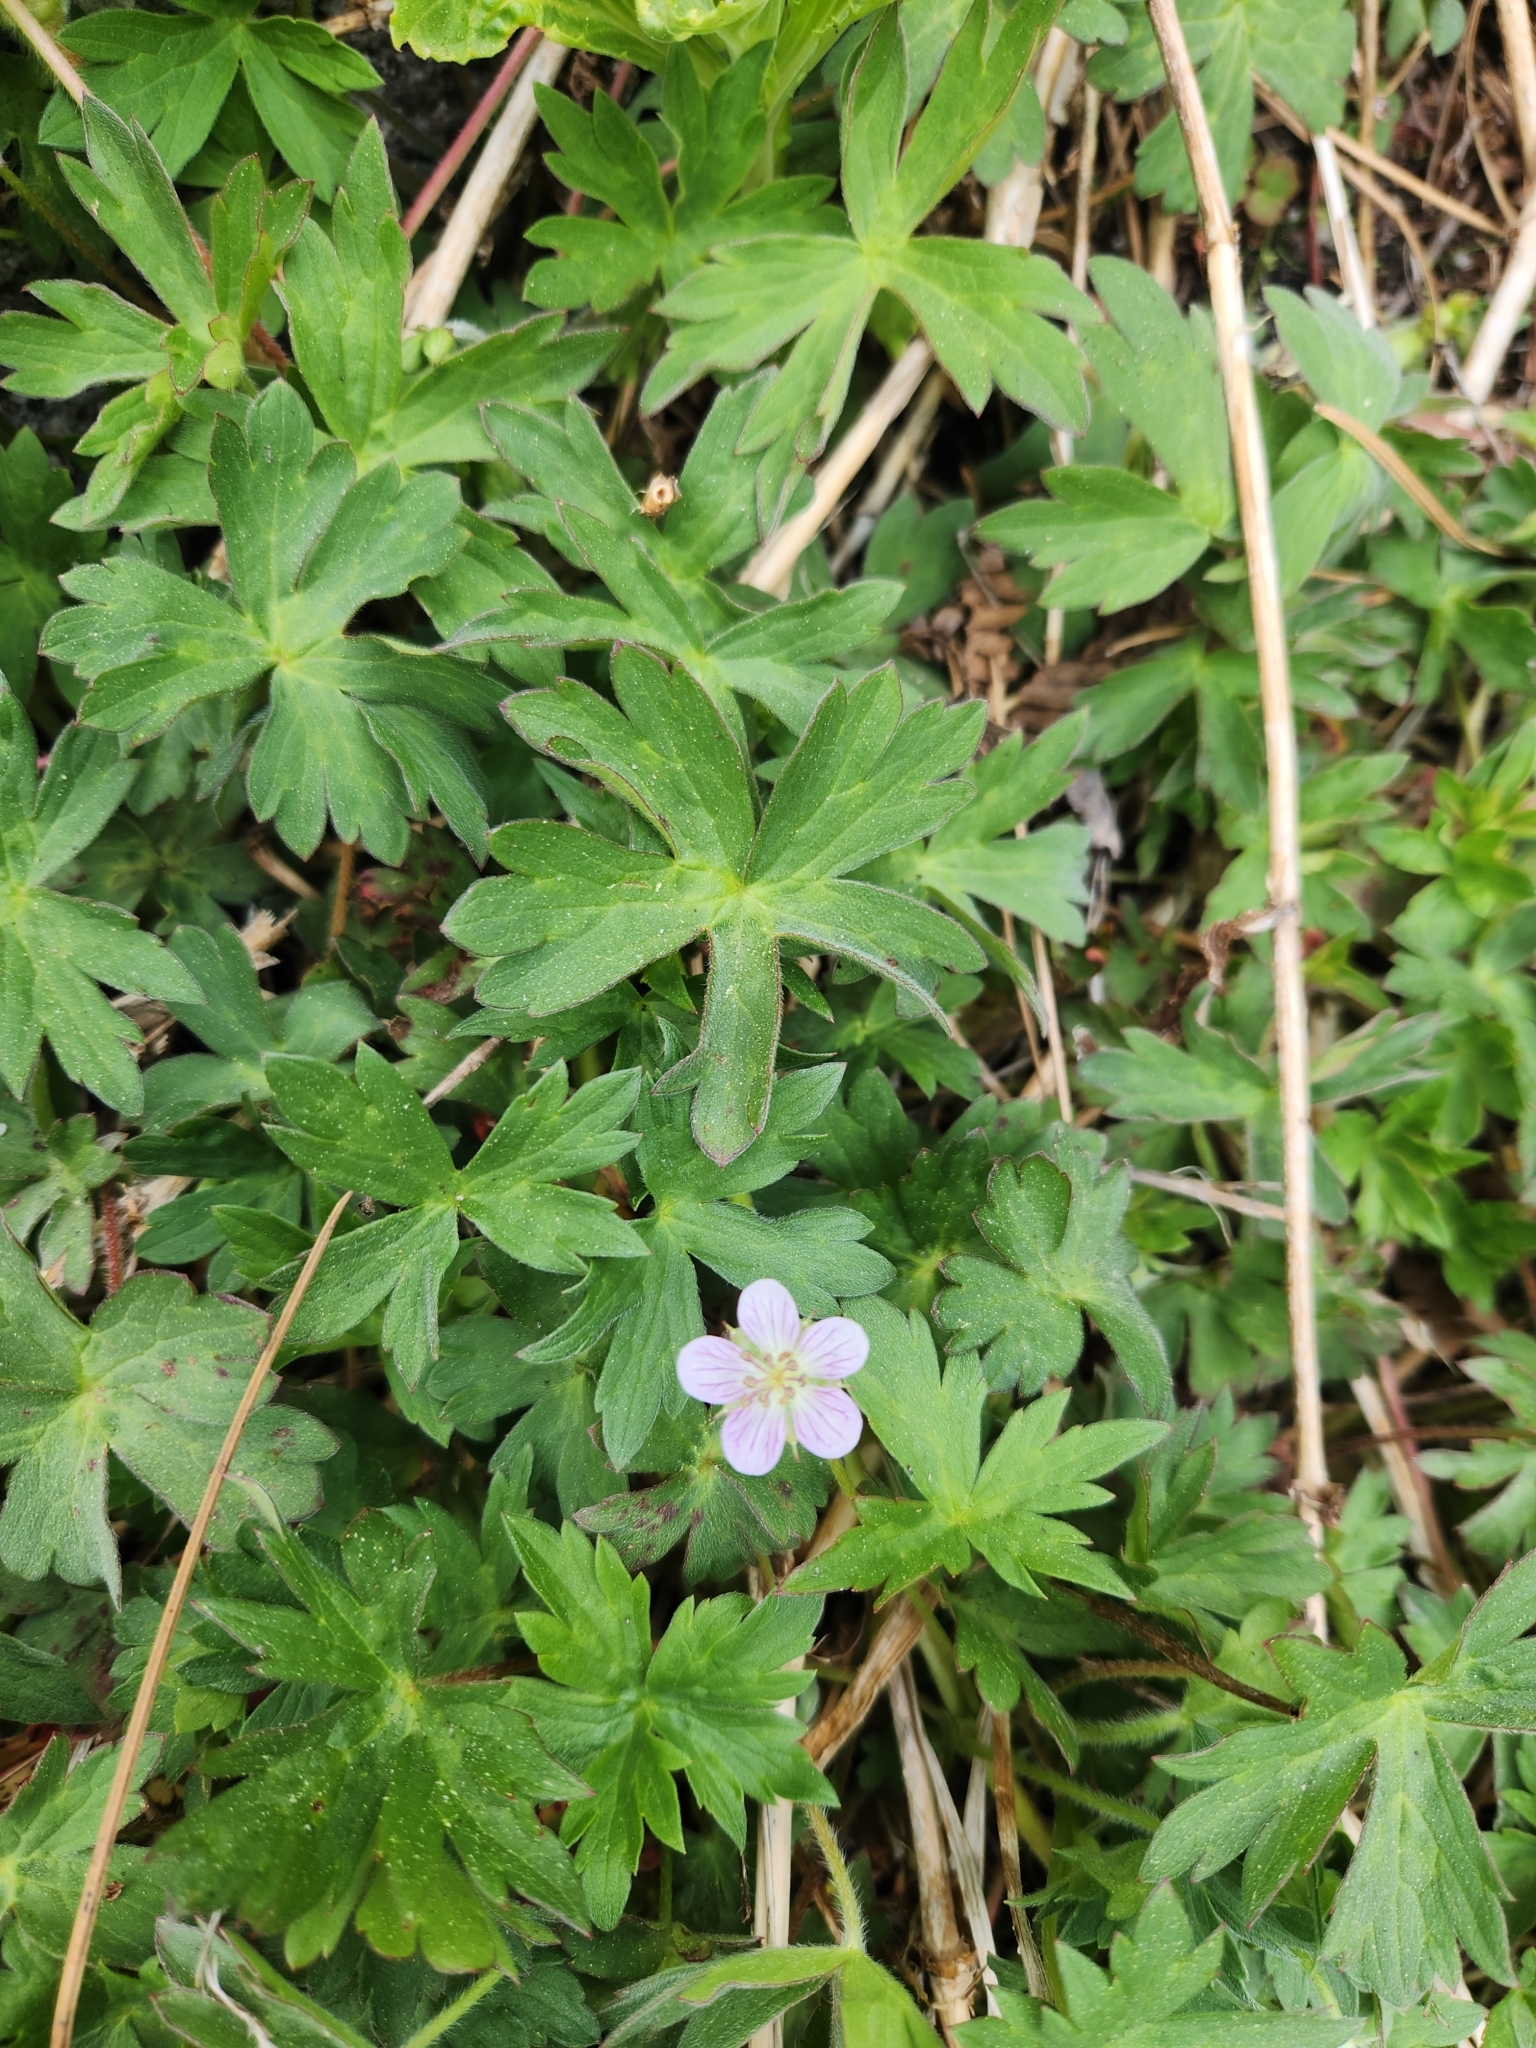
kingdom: Plantae
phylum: Tracheophyta
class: Magnoliopsida
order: Geraniales
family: Geraniaceae
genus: Geranium
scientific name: Geranium californicum
